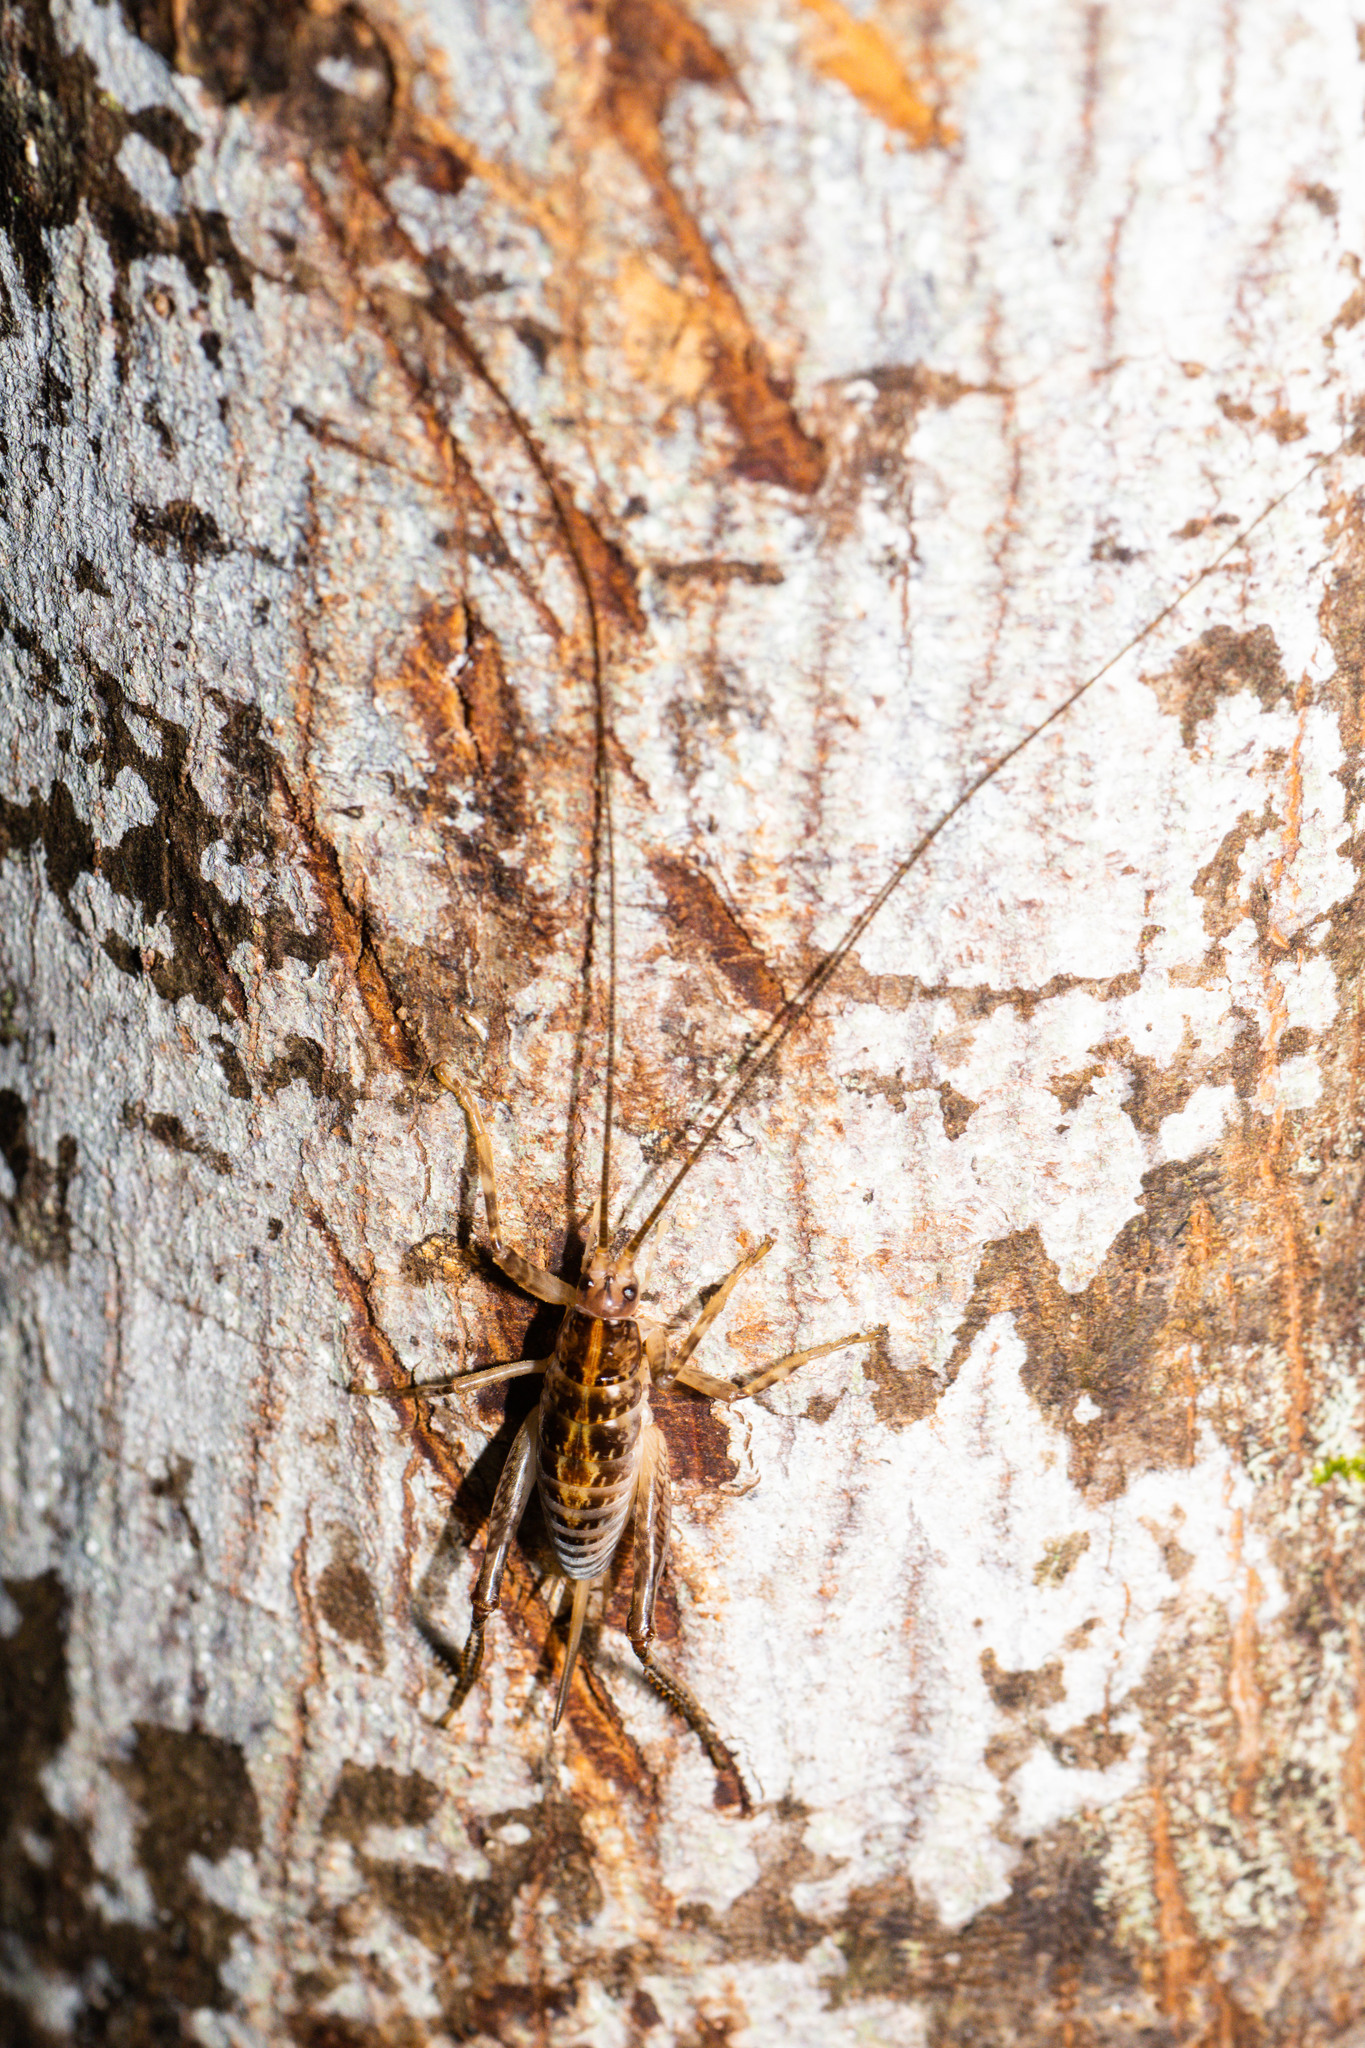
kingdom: Animalia
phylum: Arthropoda
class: Insecta
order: Orthoptera
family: Rhaphidophoridae
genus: Talitropsis
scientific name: Talitropsis sedilloti
